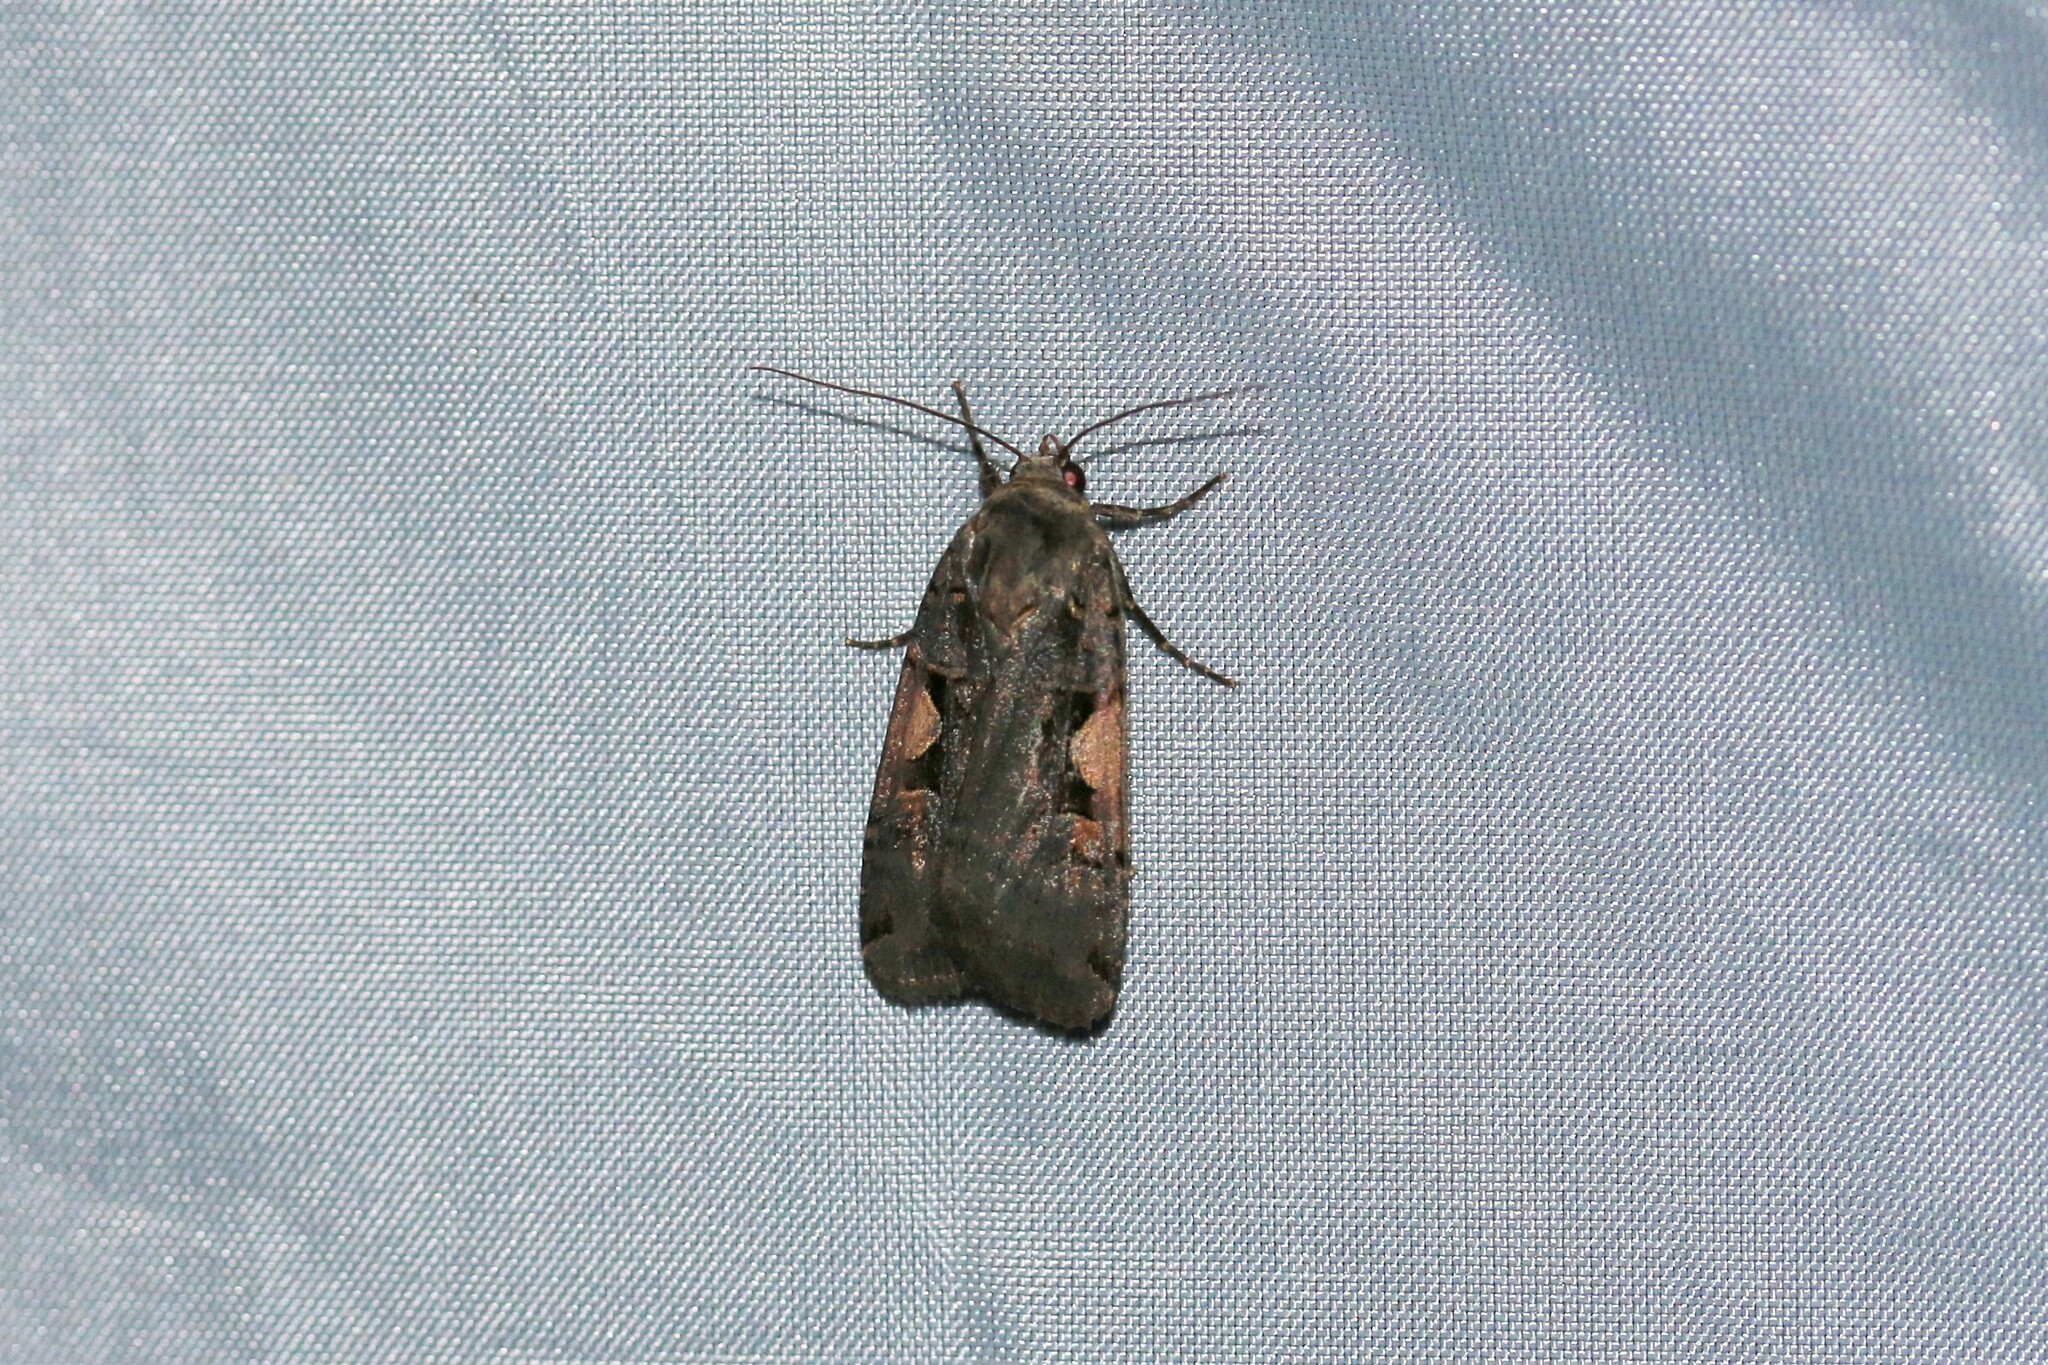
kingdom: Animalia
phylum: Arthropoda
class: Insecta
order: Lepidoptera
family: Noctuidae
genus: Xestia
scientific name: Xestia c-nigrum
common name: Setaceous hebrew character
